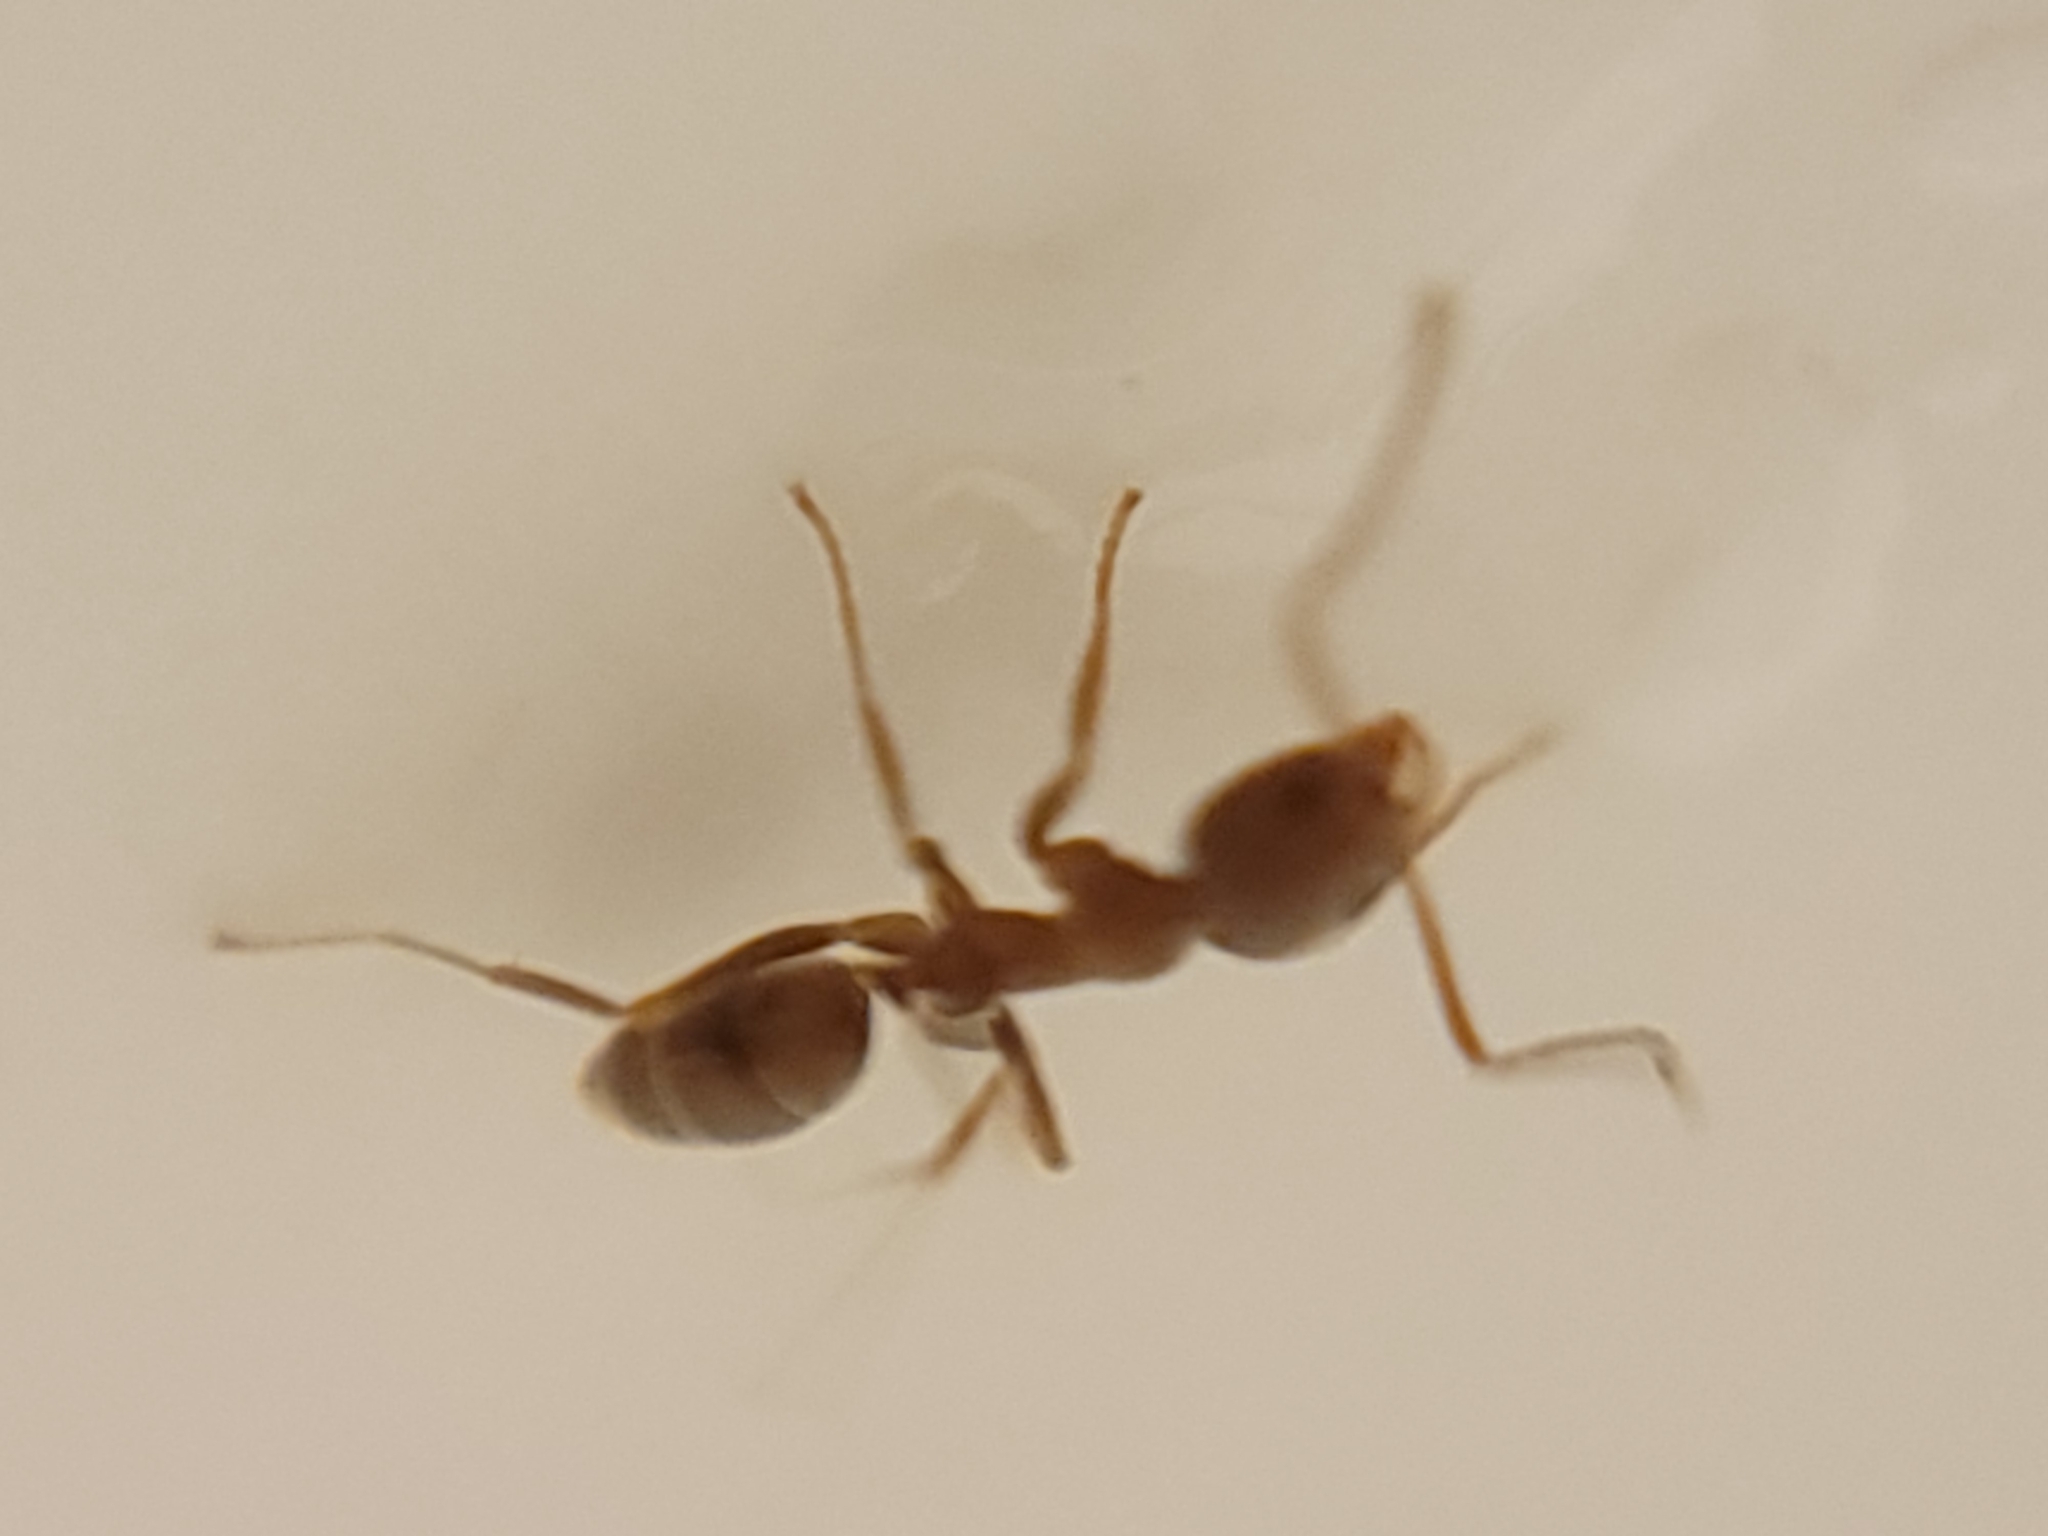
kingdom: Animalia
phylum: Arthropoda
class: Insecta
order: Hymenoptera
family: Formicidae
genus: Linepithema
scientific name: Linepithema humile
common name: Argentine ant
